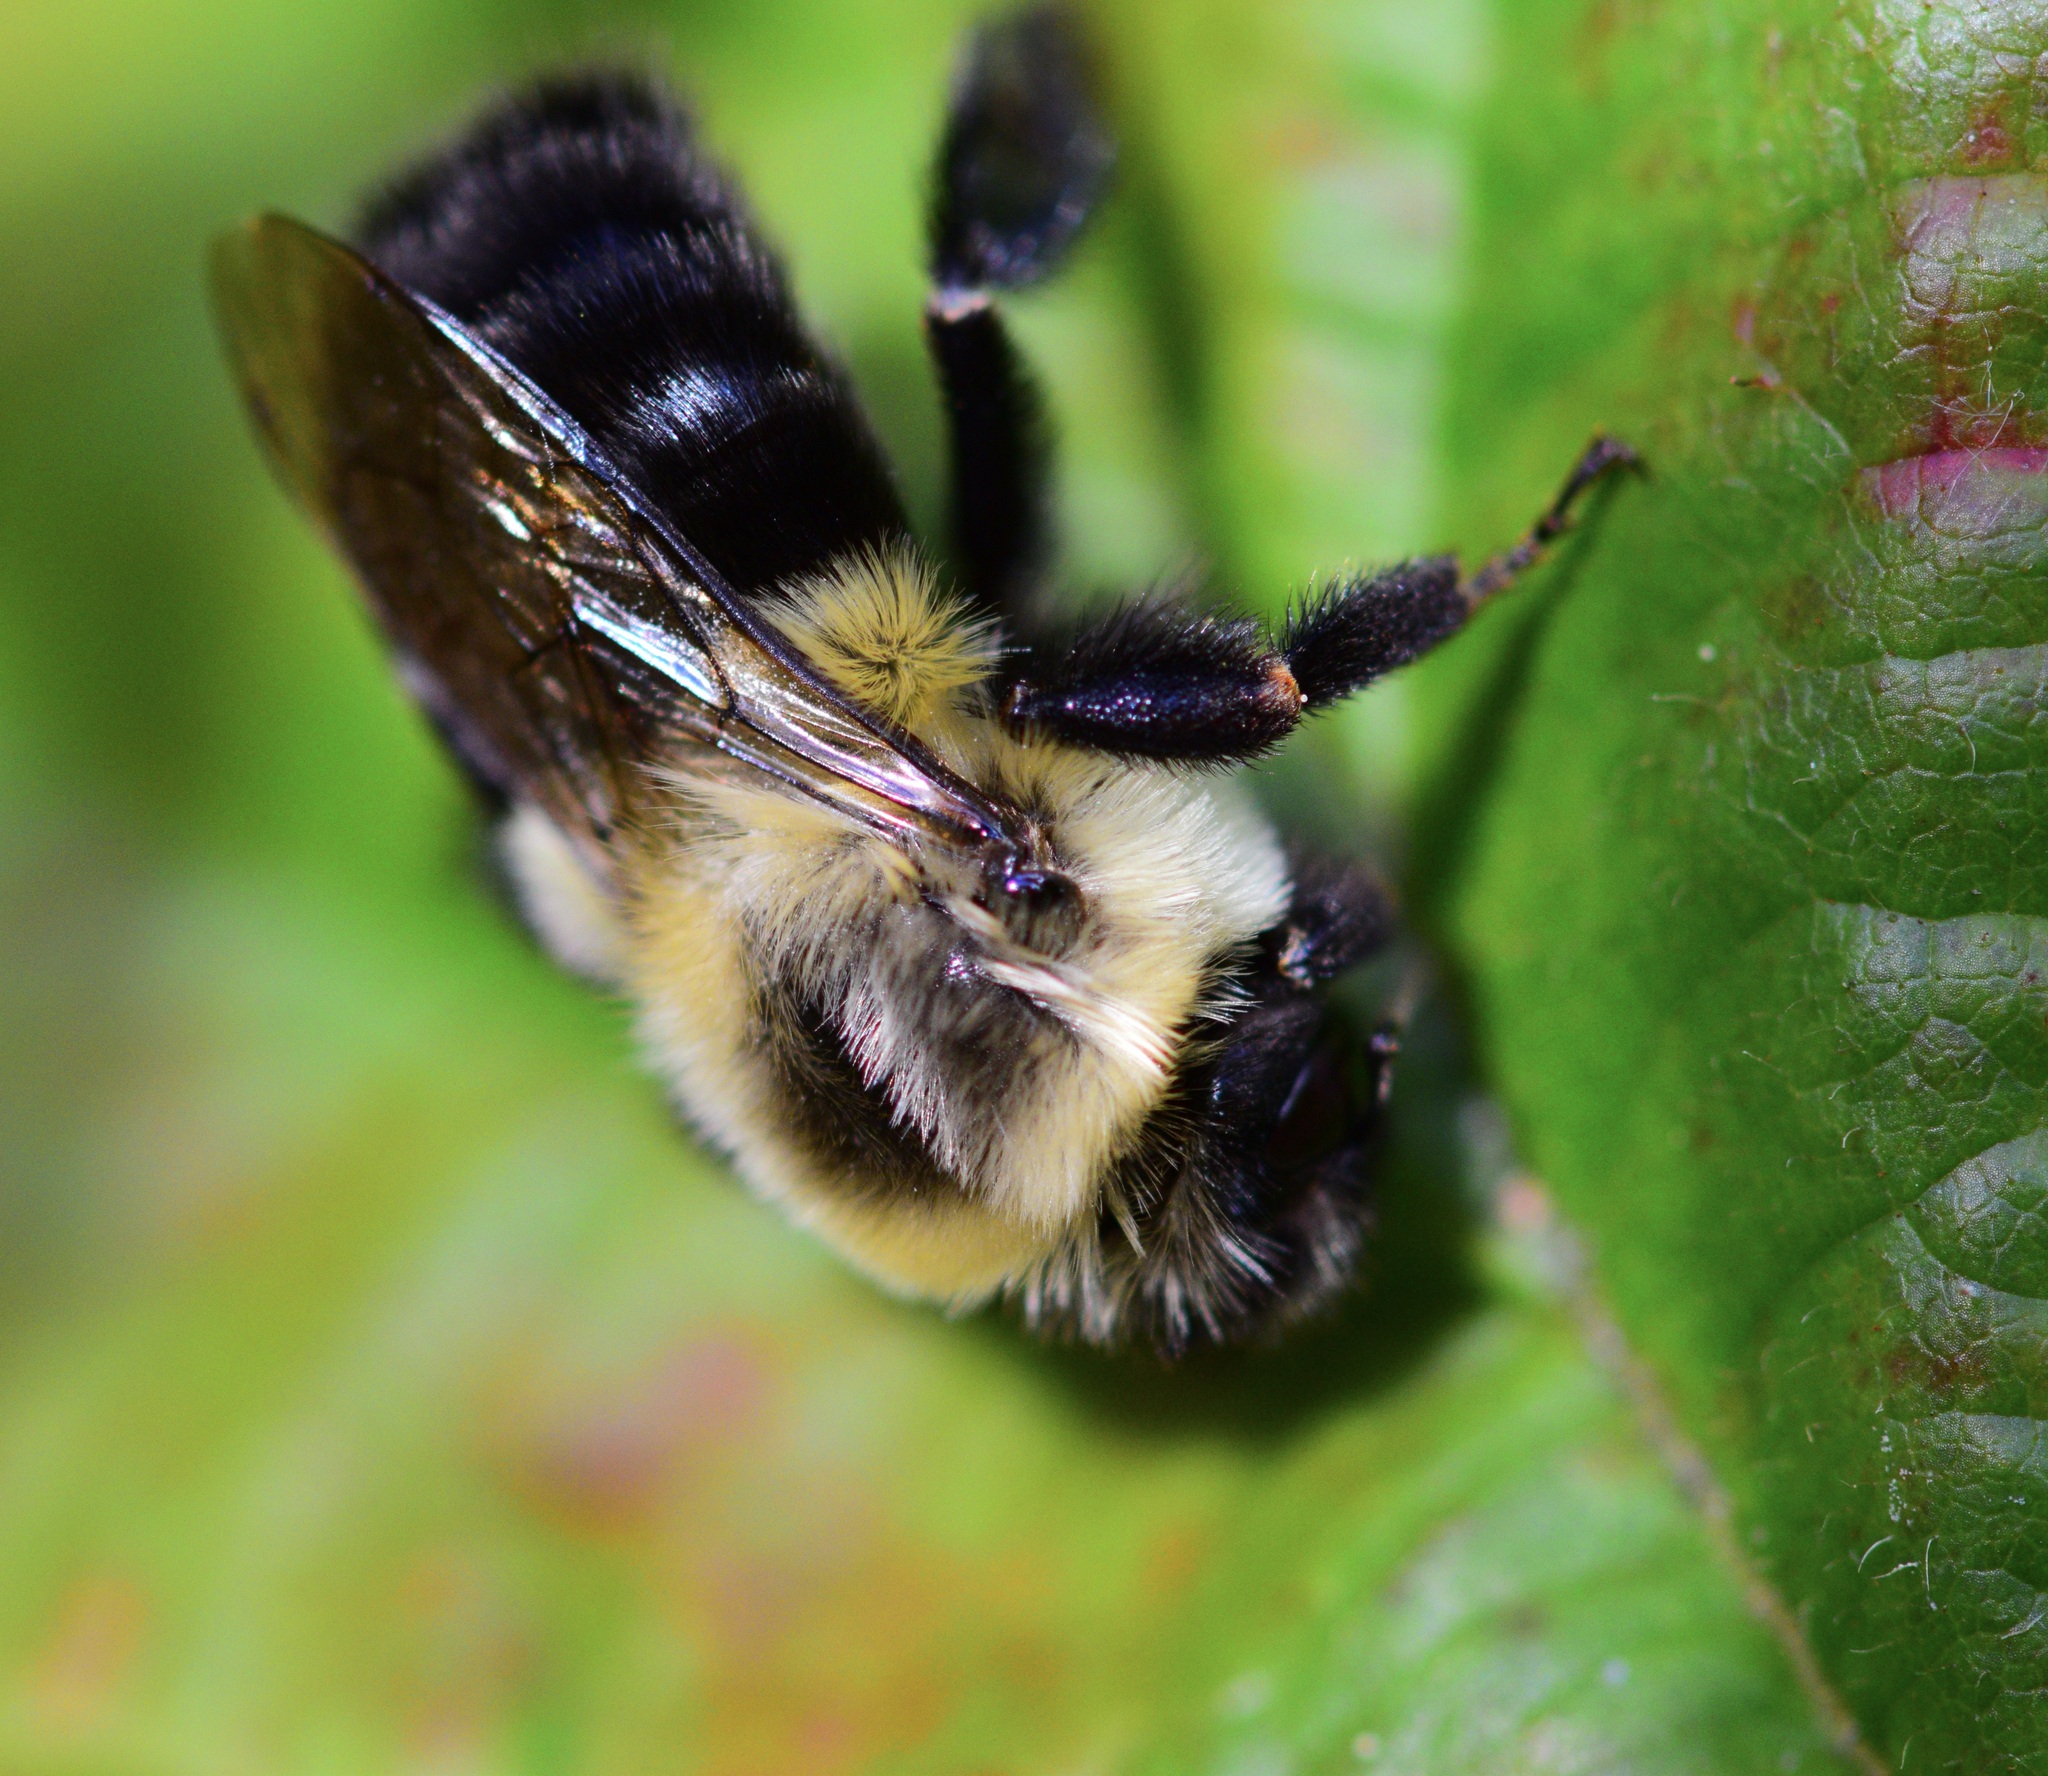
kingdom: Animalia
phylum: Arthropoda
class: Insecta
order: Hymenoptera
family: Apidae
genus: Bombus
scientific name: Bombus impatiens
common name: Common eastern bumble bee
